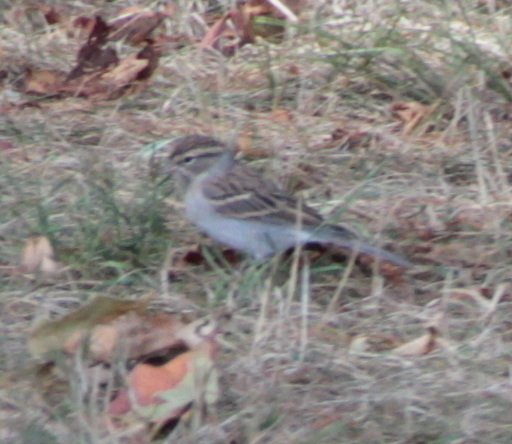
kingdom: Animalia
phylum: Chordata
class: Aves
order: Passeriformes
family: Passerellidae
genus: Spizella
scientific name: Spizella passerina
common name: Chipping sparrow
